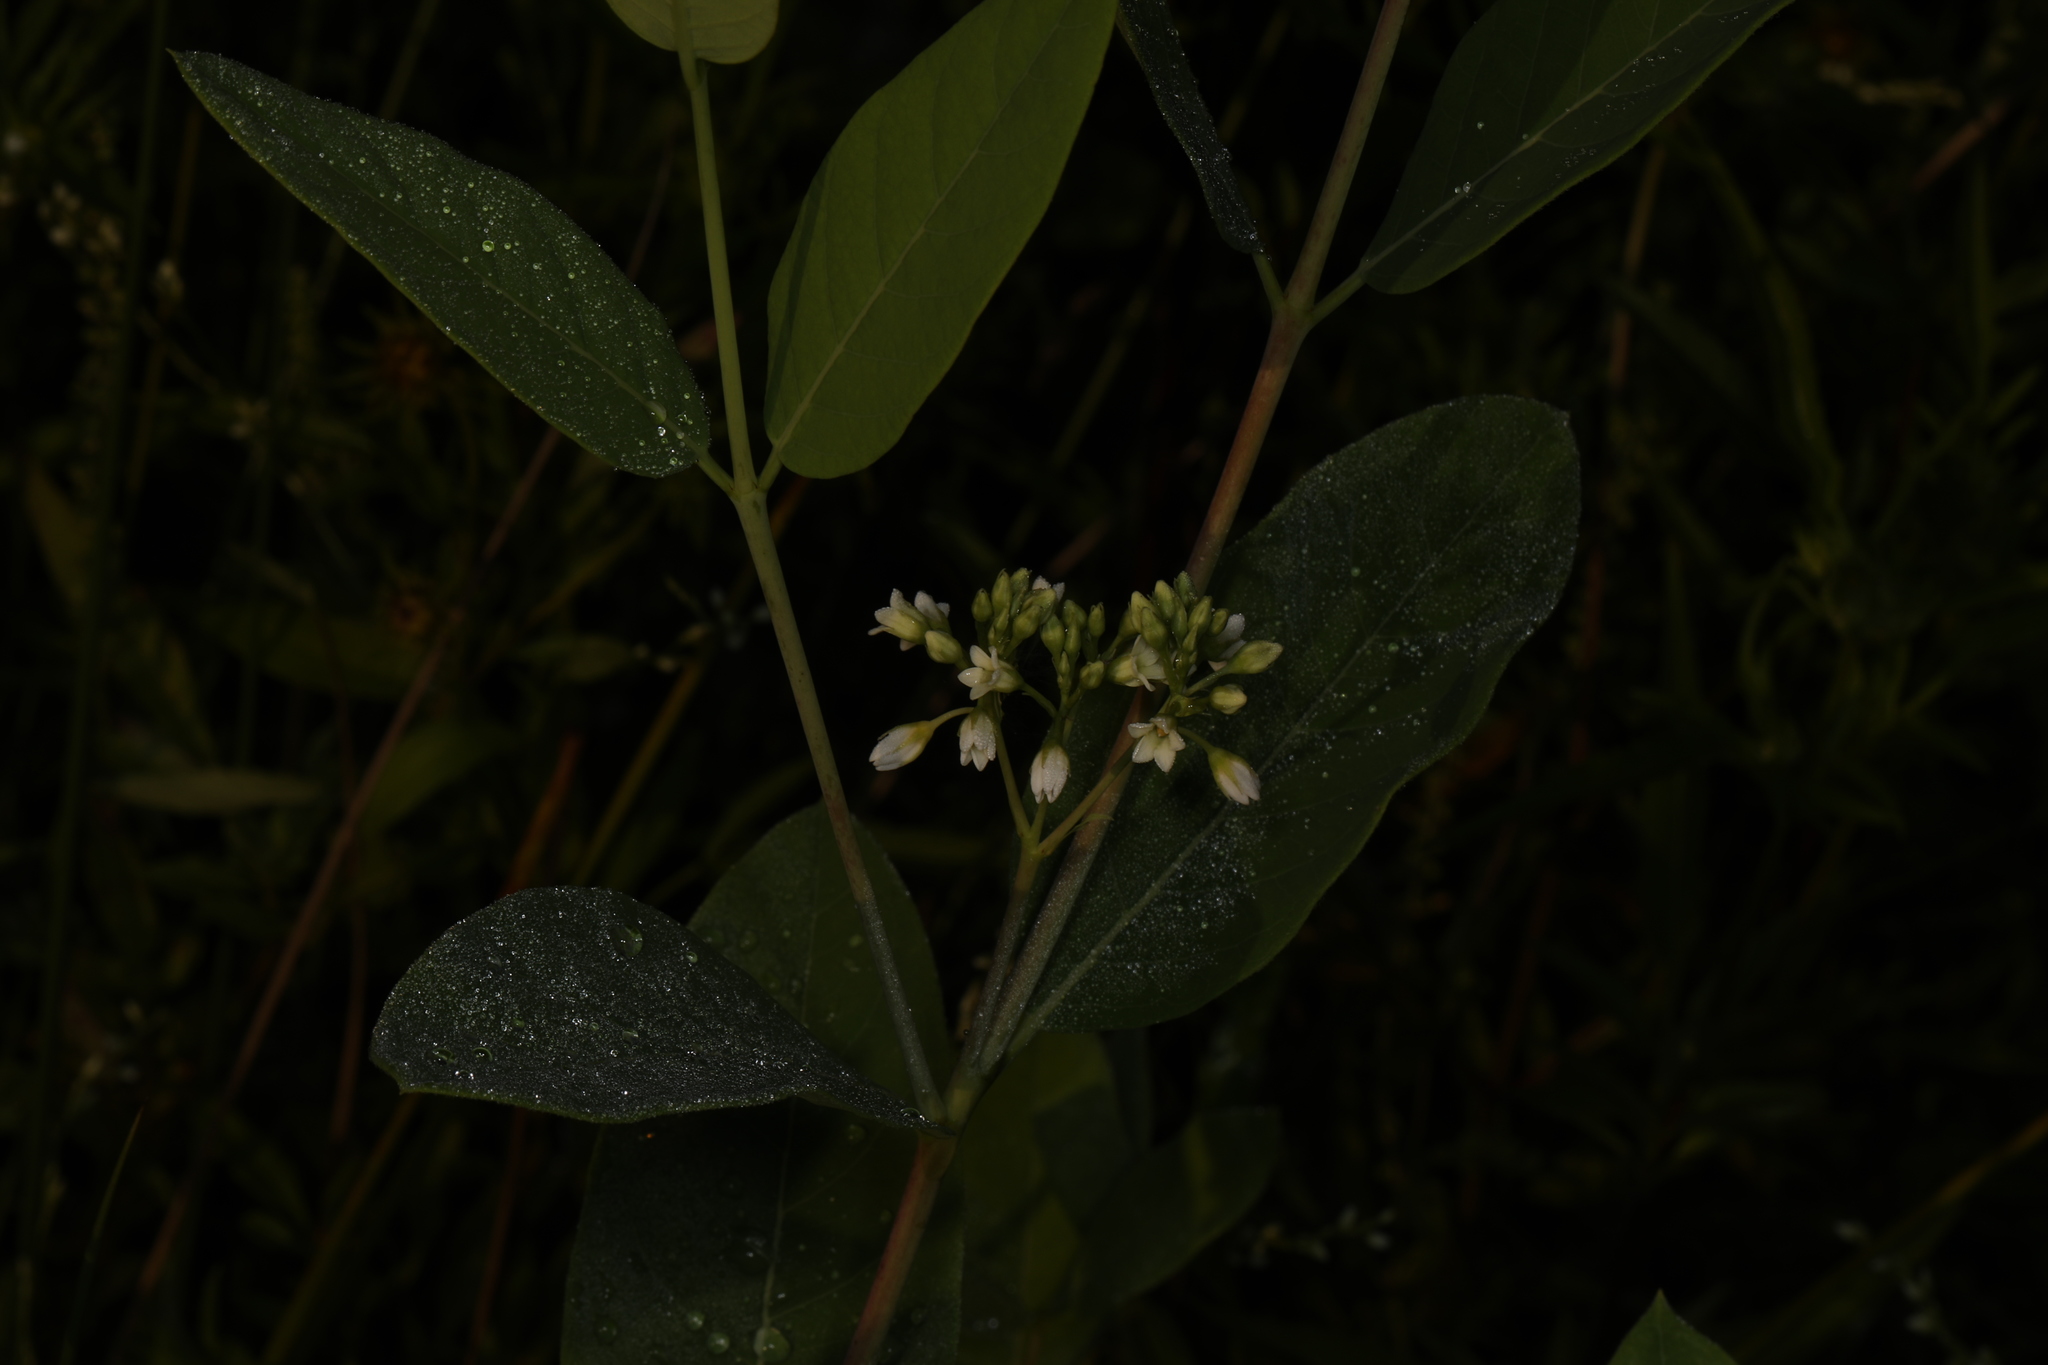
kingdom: Plantae
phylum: Tracheophyta
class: Magnoliopsida
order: Gentianales
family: Apocynaceae
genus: Apocynum
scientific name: Apocynum cannabinum
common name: Hemp dogbane
